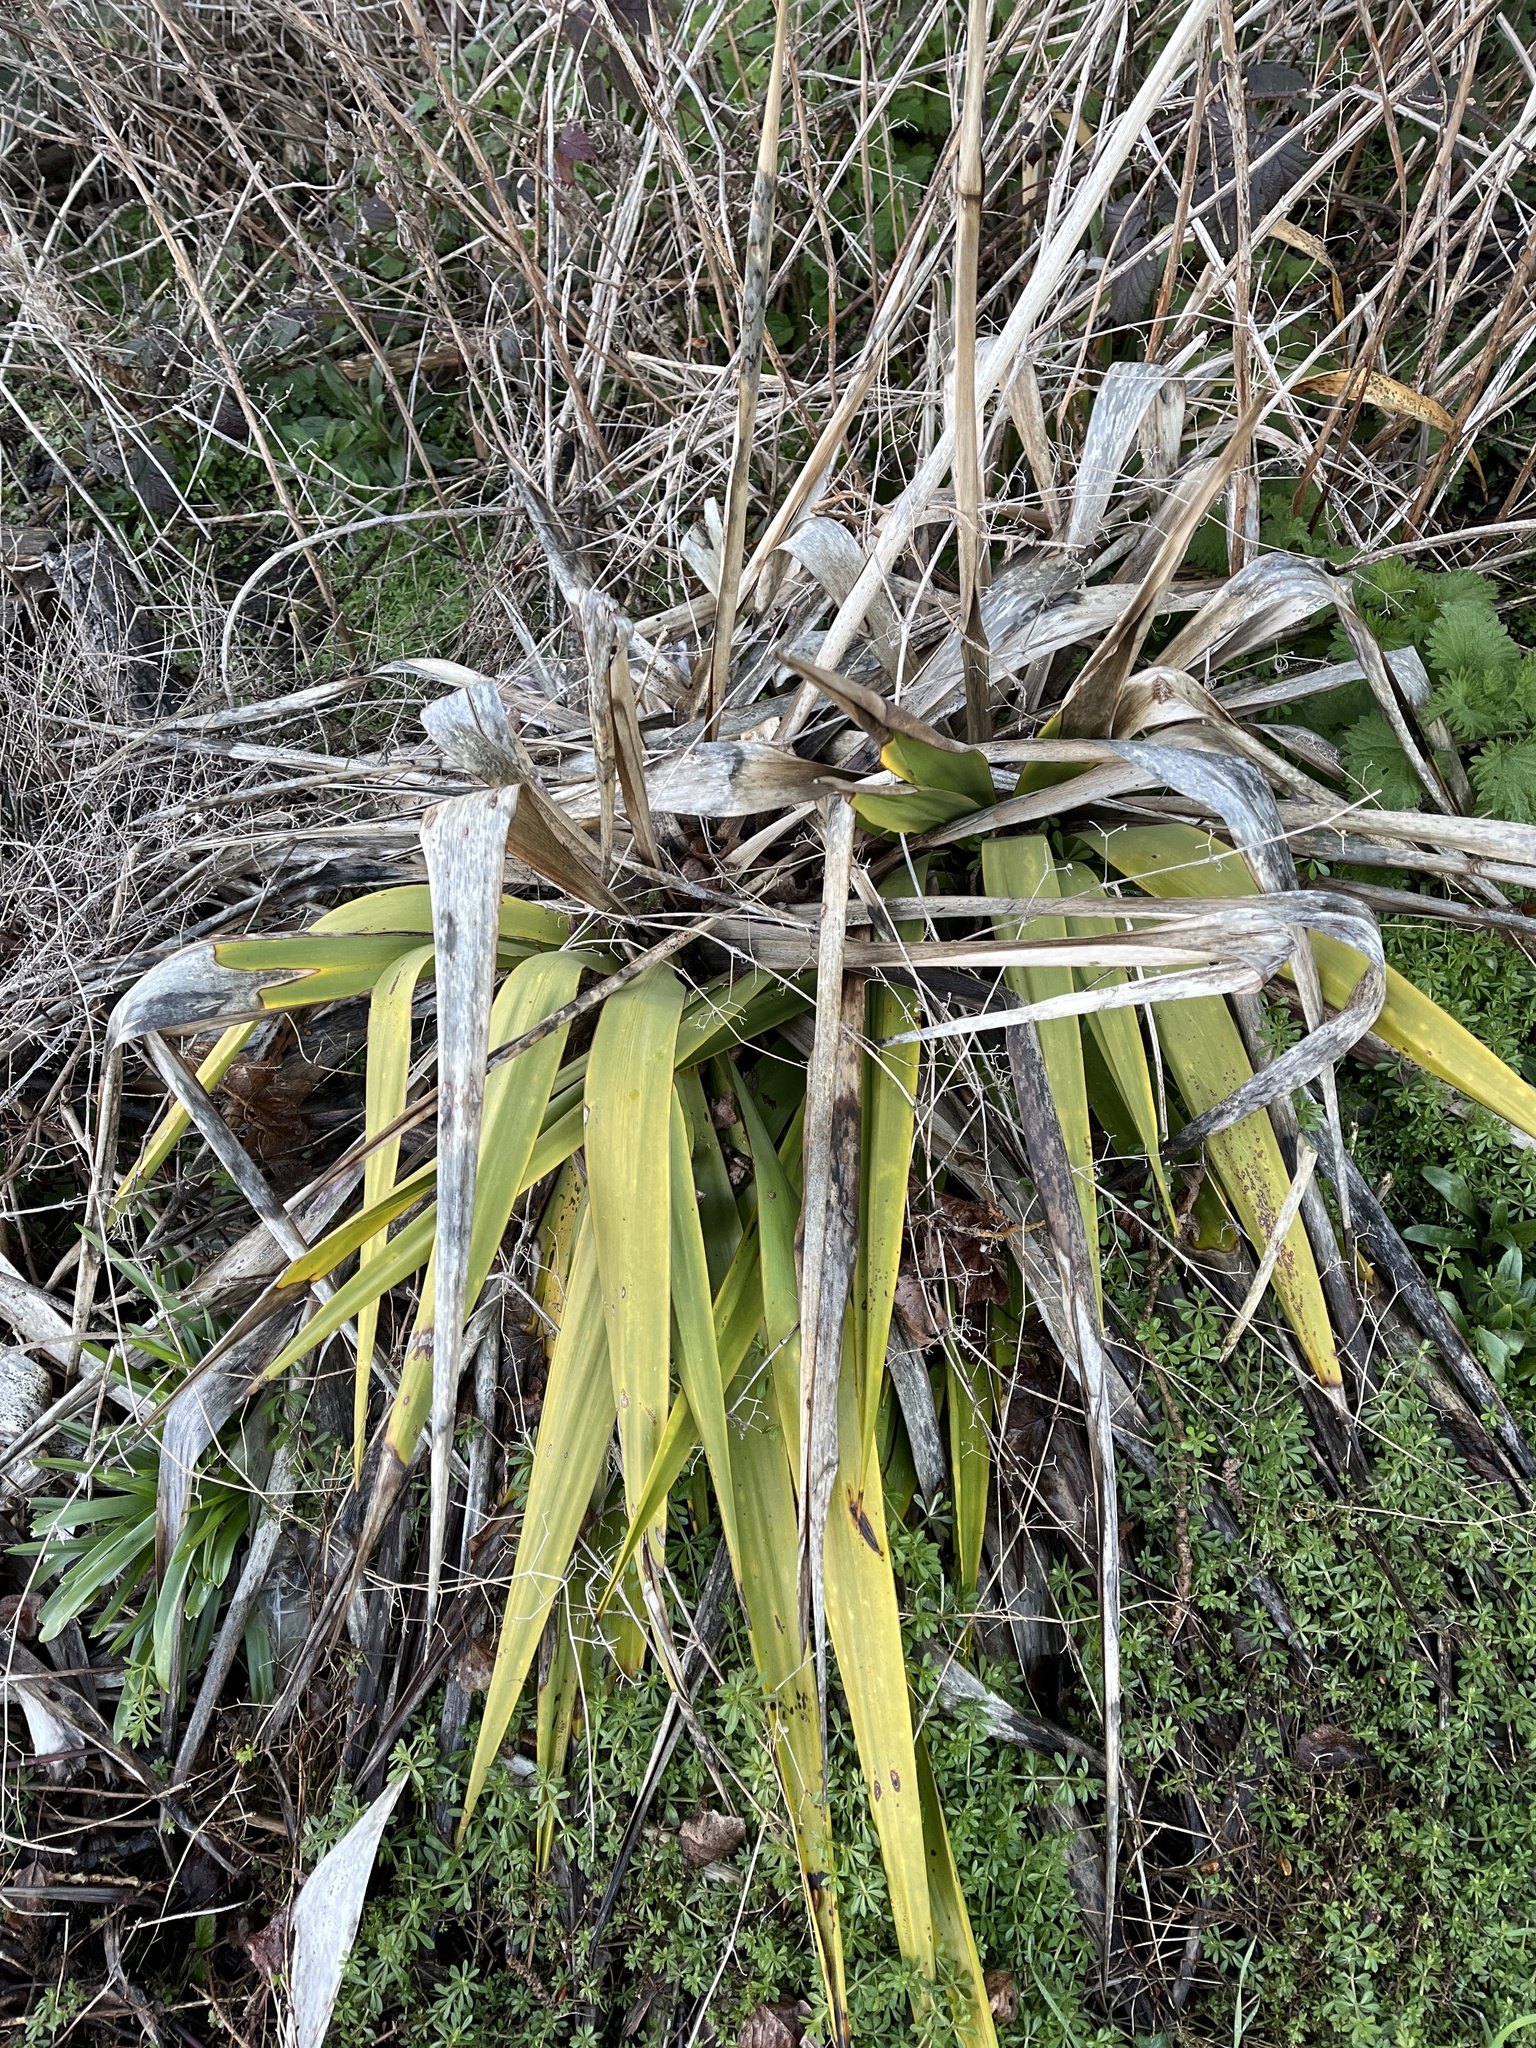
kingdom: Plantae
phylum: Tracheophyta
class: Liliopsida
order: Asparagales
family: Asparagaceae
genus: Yucca
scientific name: Yucca filamentosa
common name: Adam's-needle
